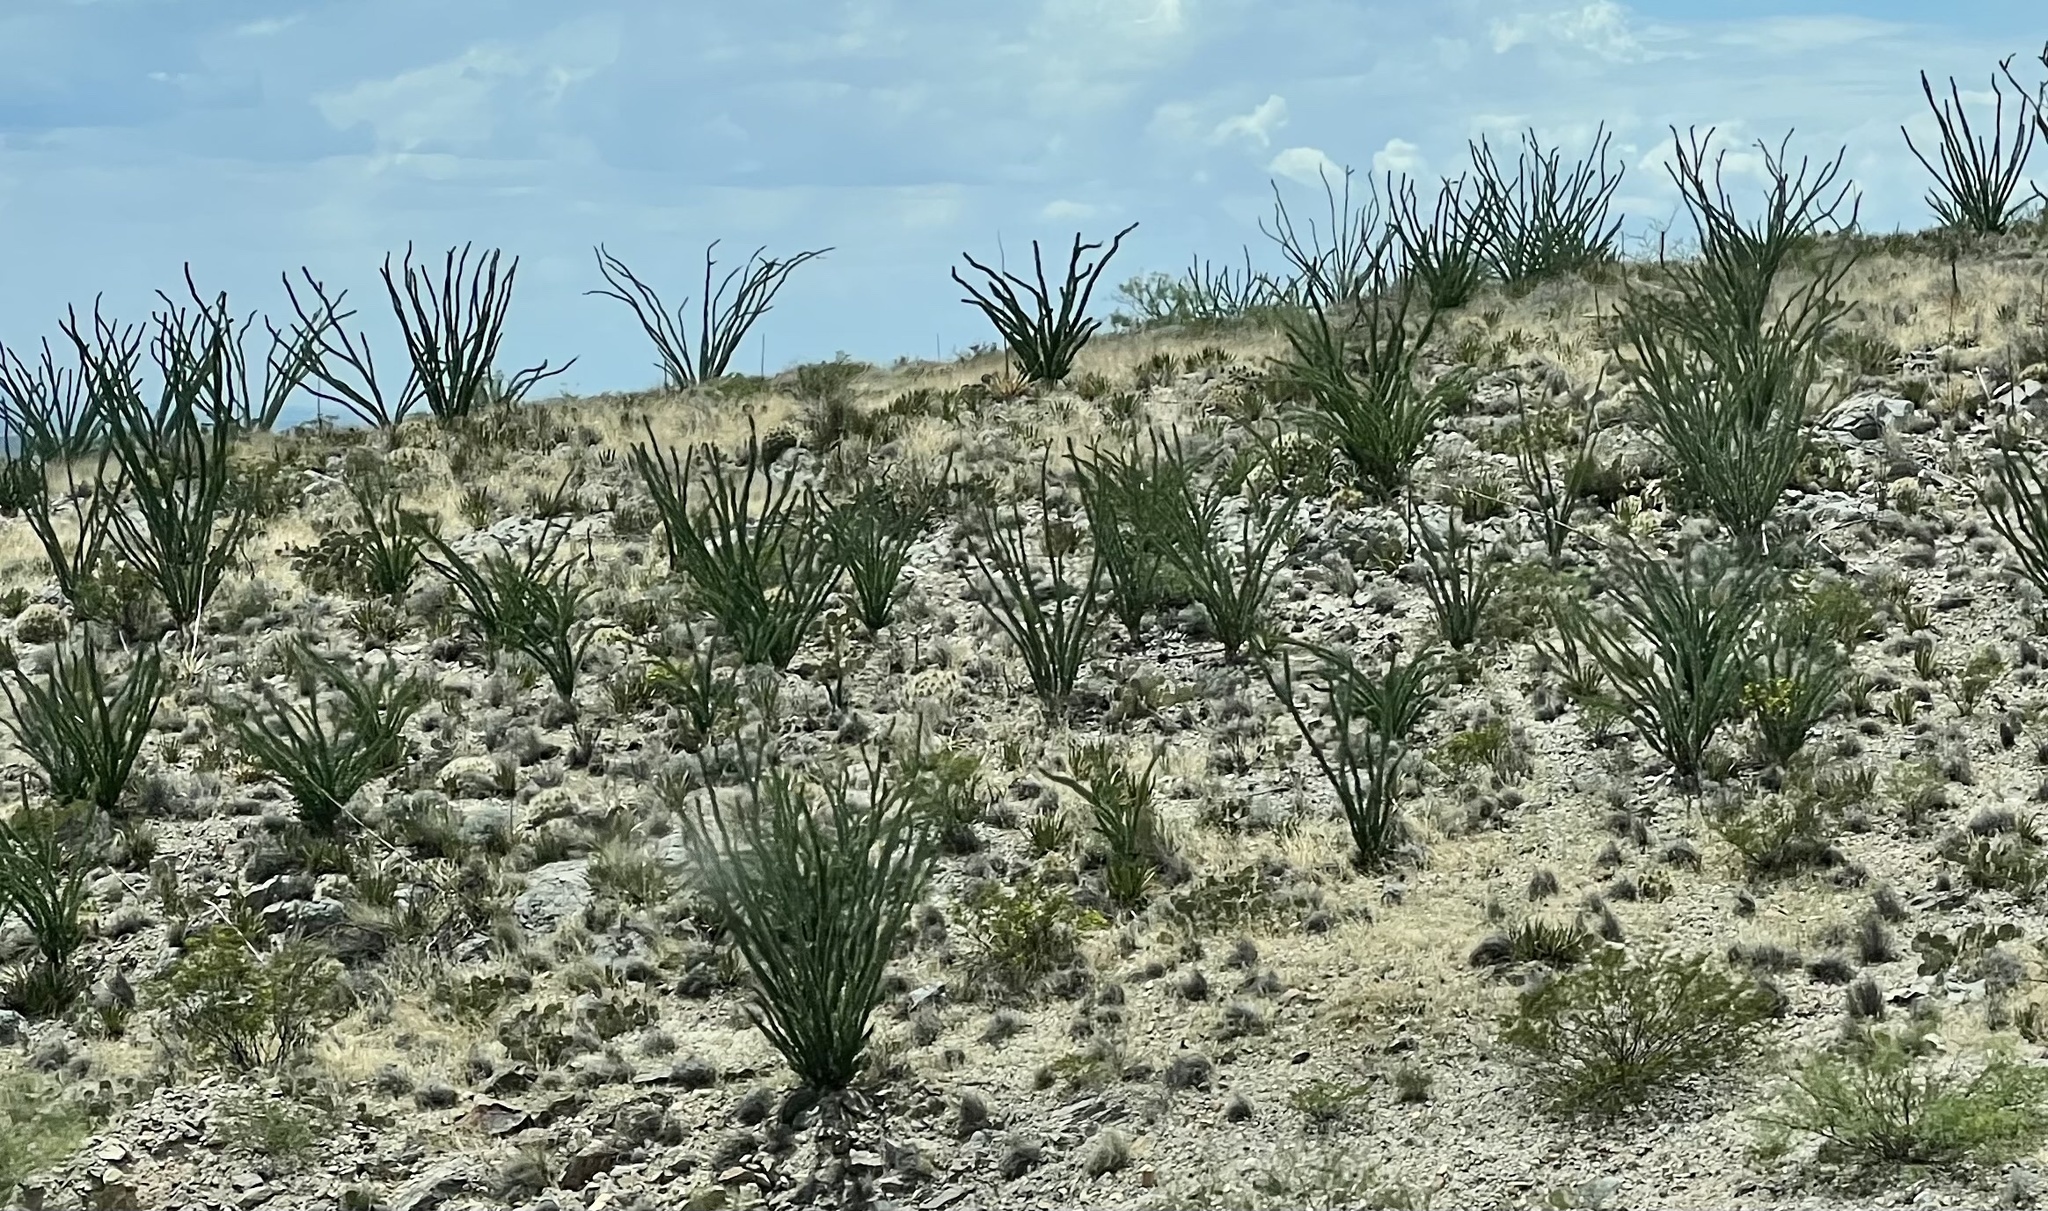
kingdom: Plantae
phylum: Tracheophyta
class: Magnoliopsida
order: Ericales
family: Fouquieriaceae
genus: Fouquieria
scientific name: Fouquieria splendens
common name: Vine-cactus
